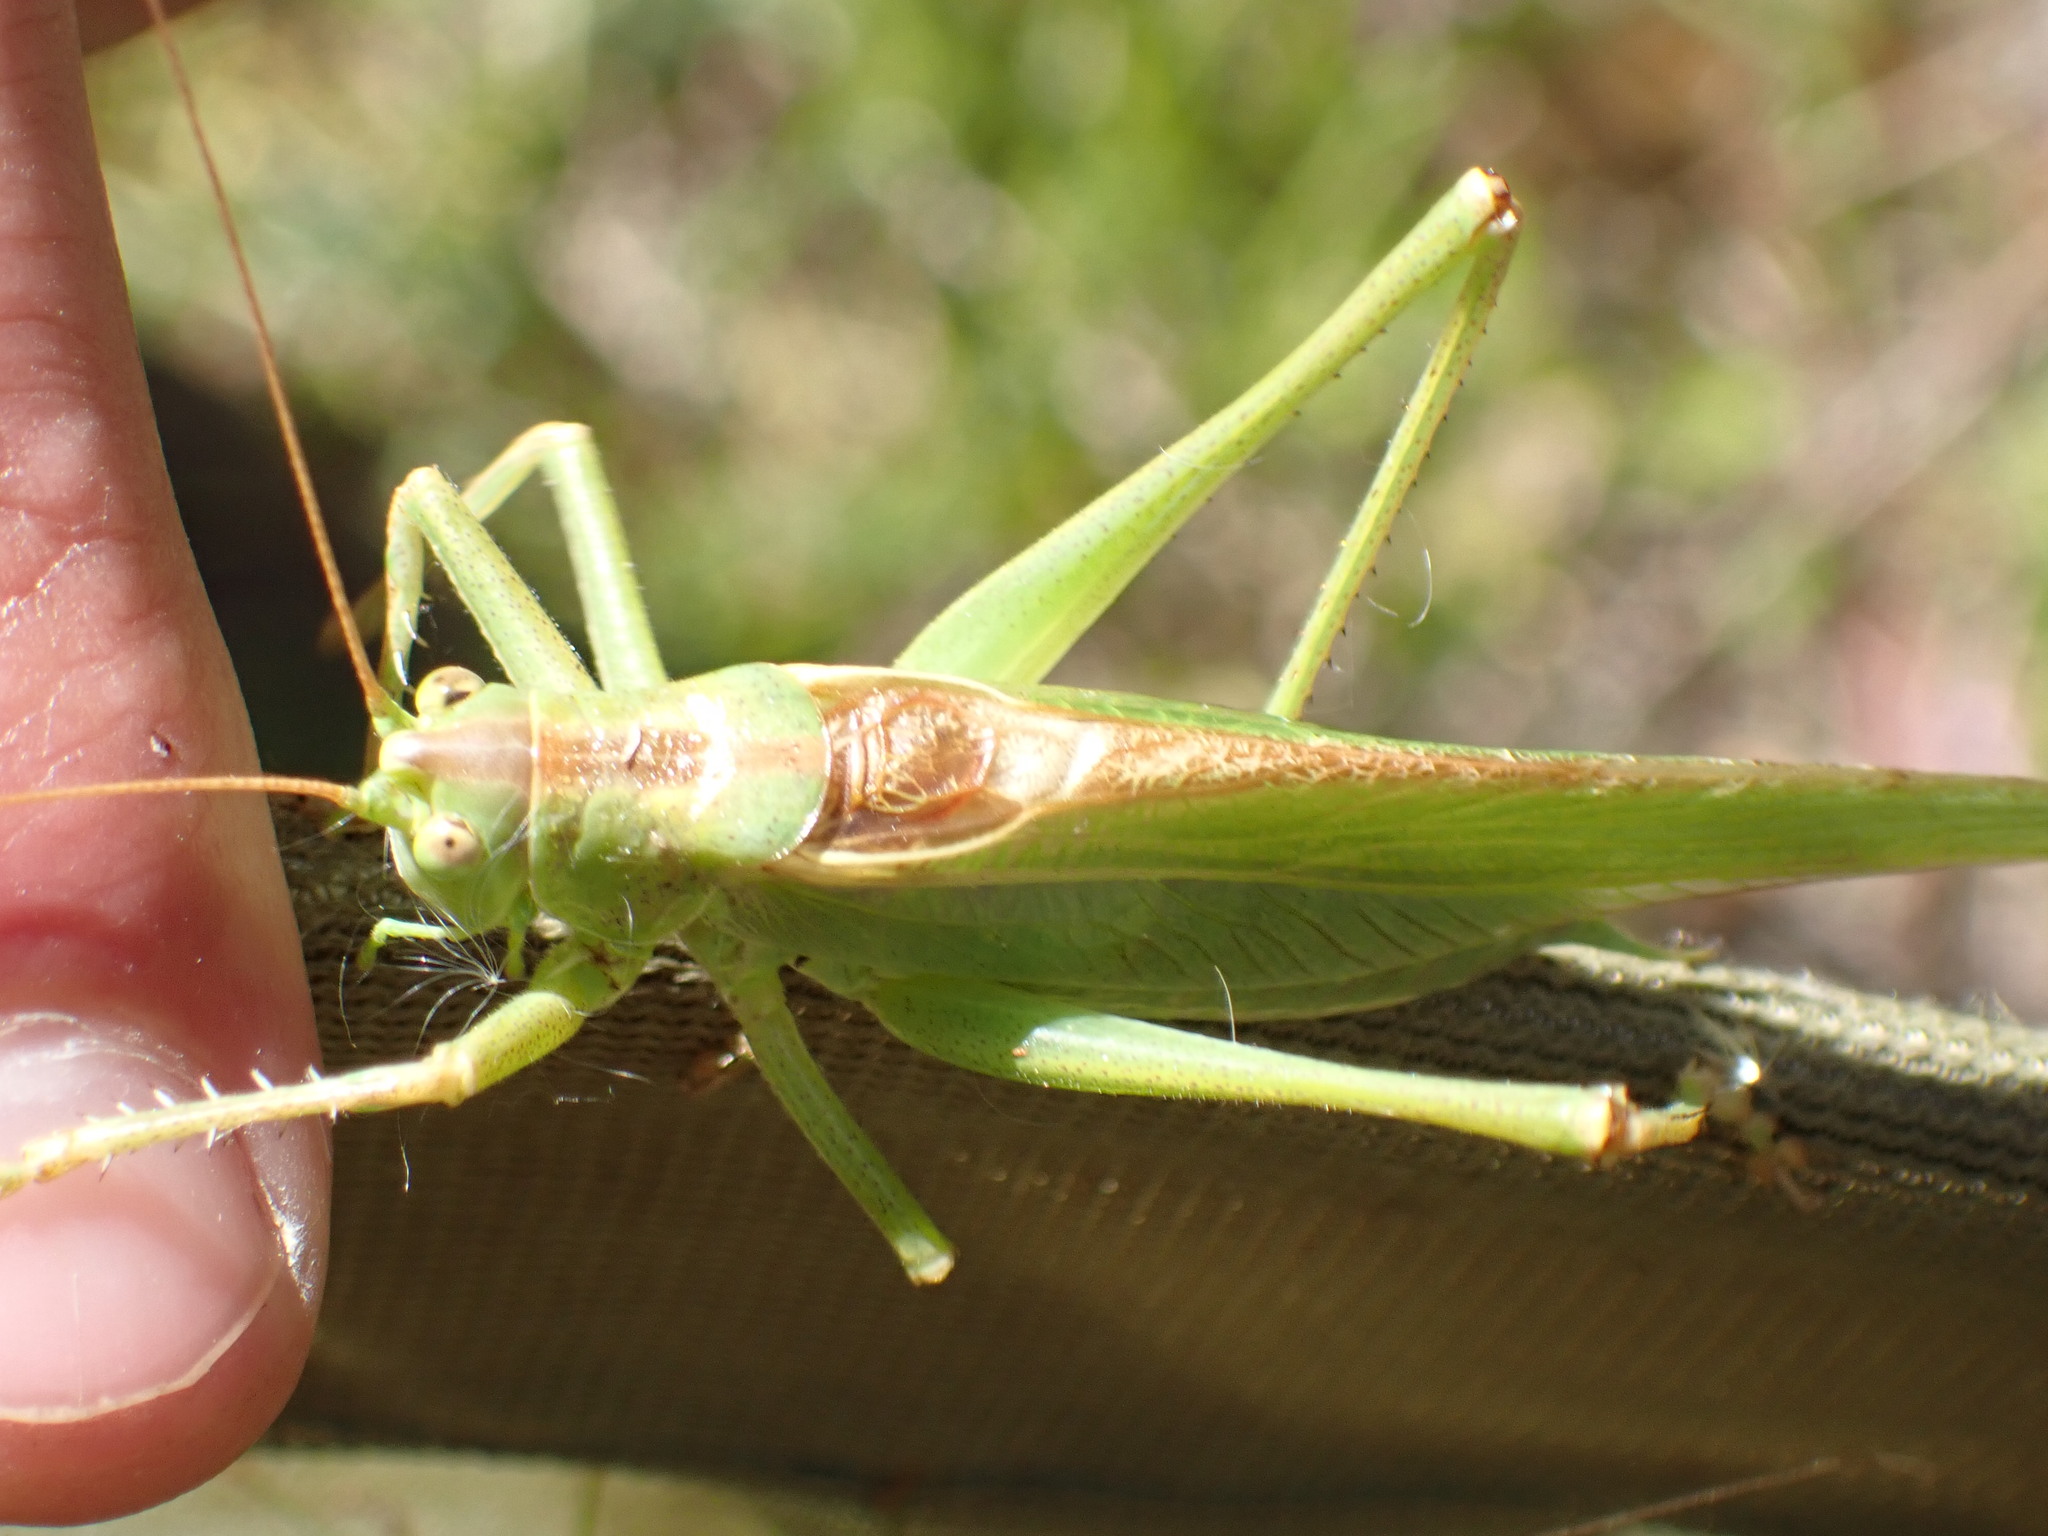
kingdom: Animalia
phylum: Arthropoda
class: Insecta
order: Orthoptera
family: Tettigoniidae
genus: Tettigonia
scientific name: Tettigonia viridissima
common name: Great green bush-cricket
